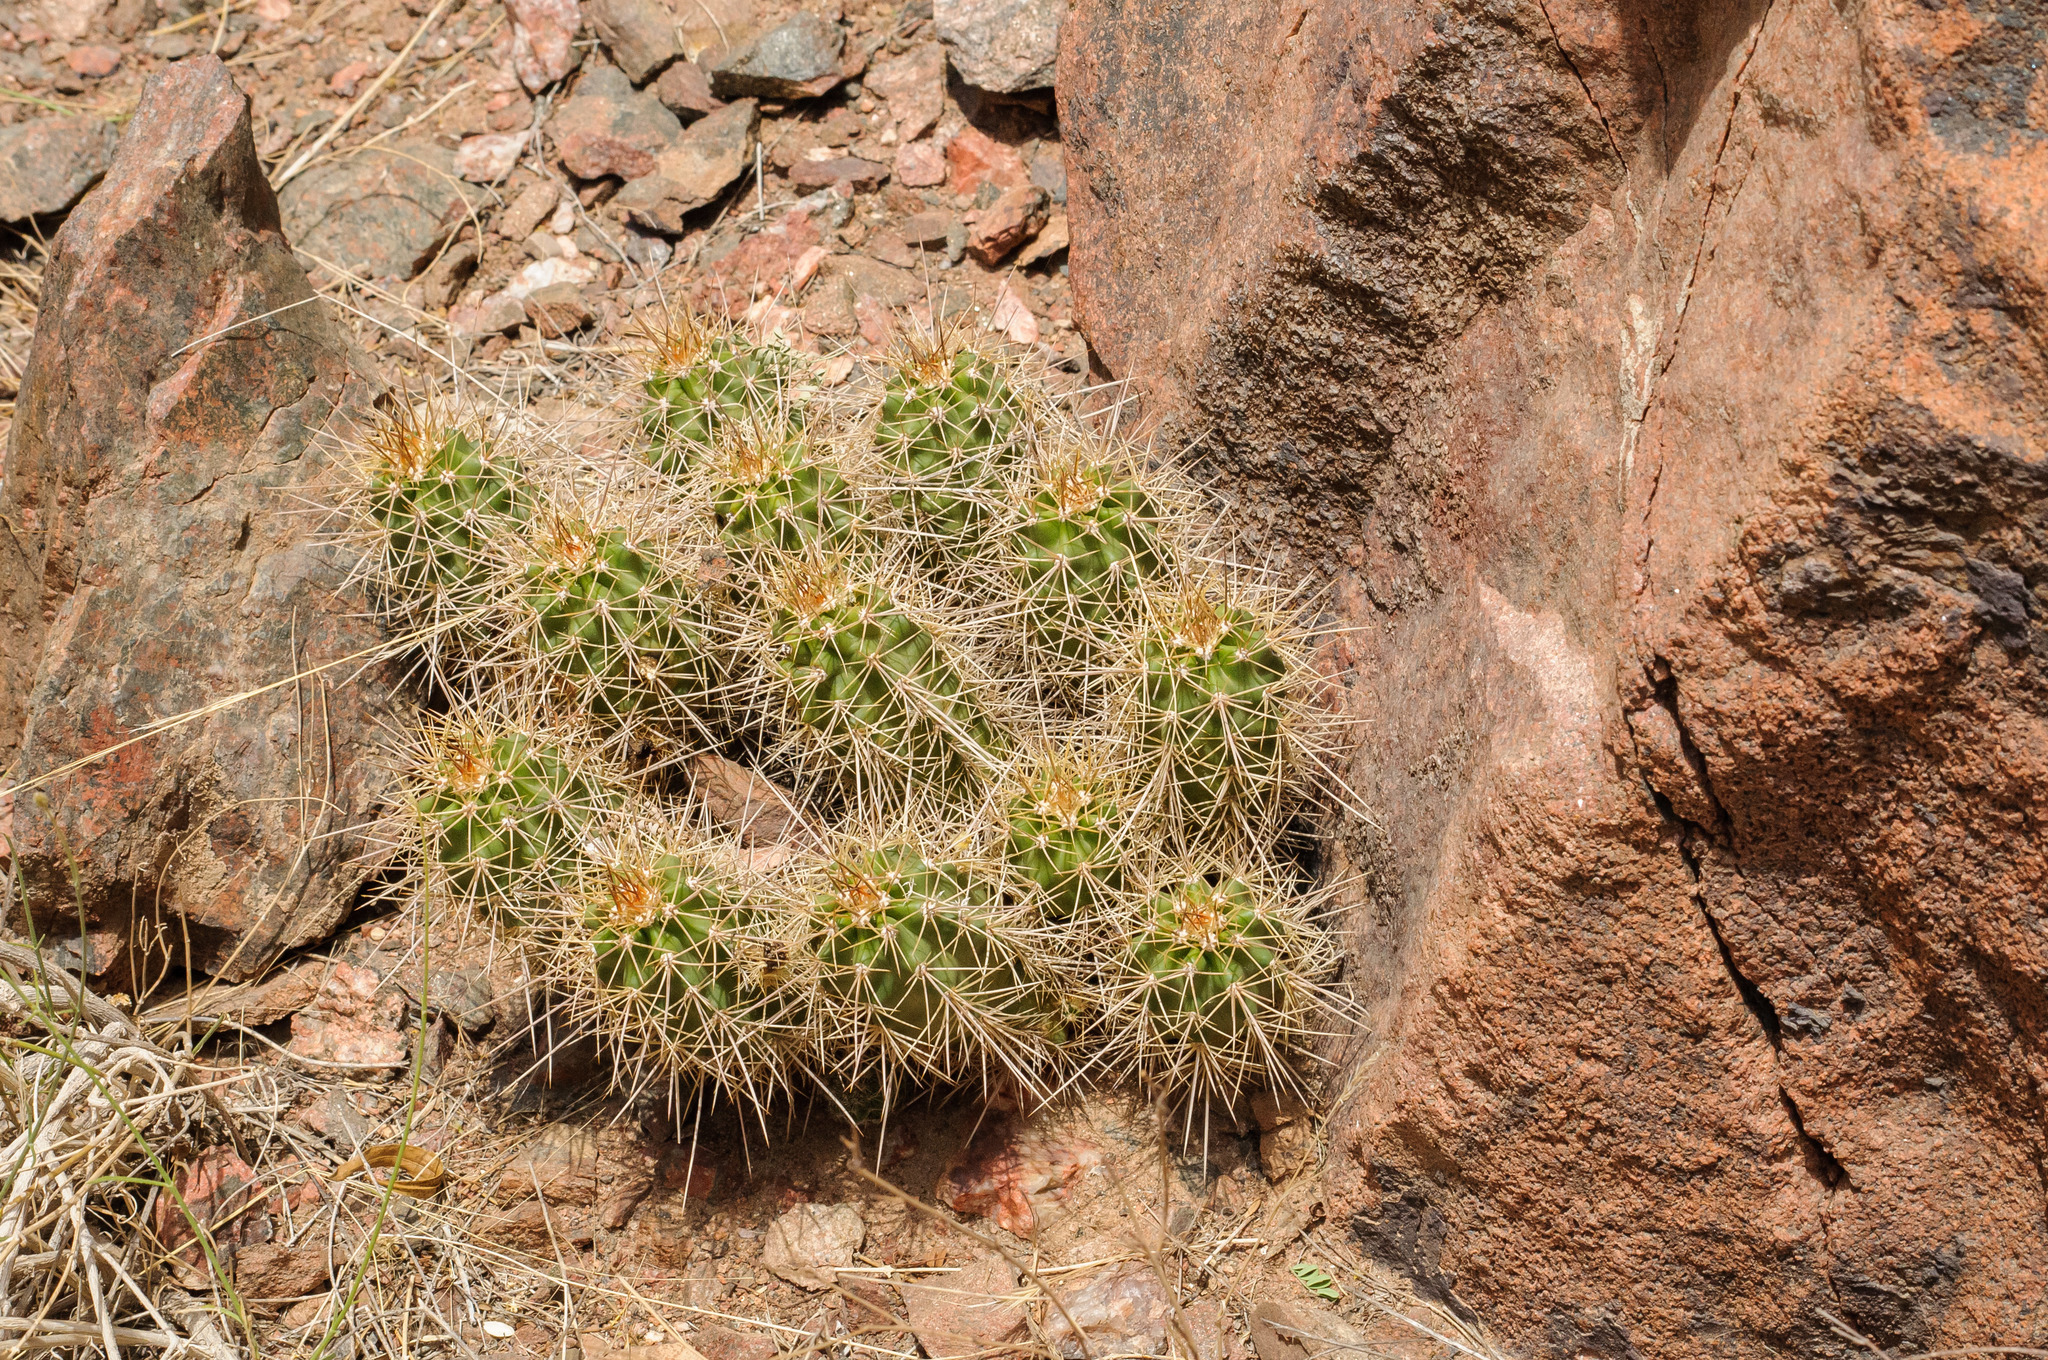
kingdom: Plantae
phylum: Tracheophyta
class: Magnoliopsida
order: Caryophyllales
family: Cactaceae
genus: Echinocereus
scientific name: Echinocereus triglochidiatus
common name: Claretcup hedgehog
